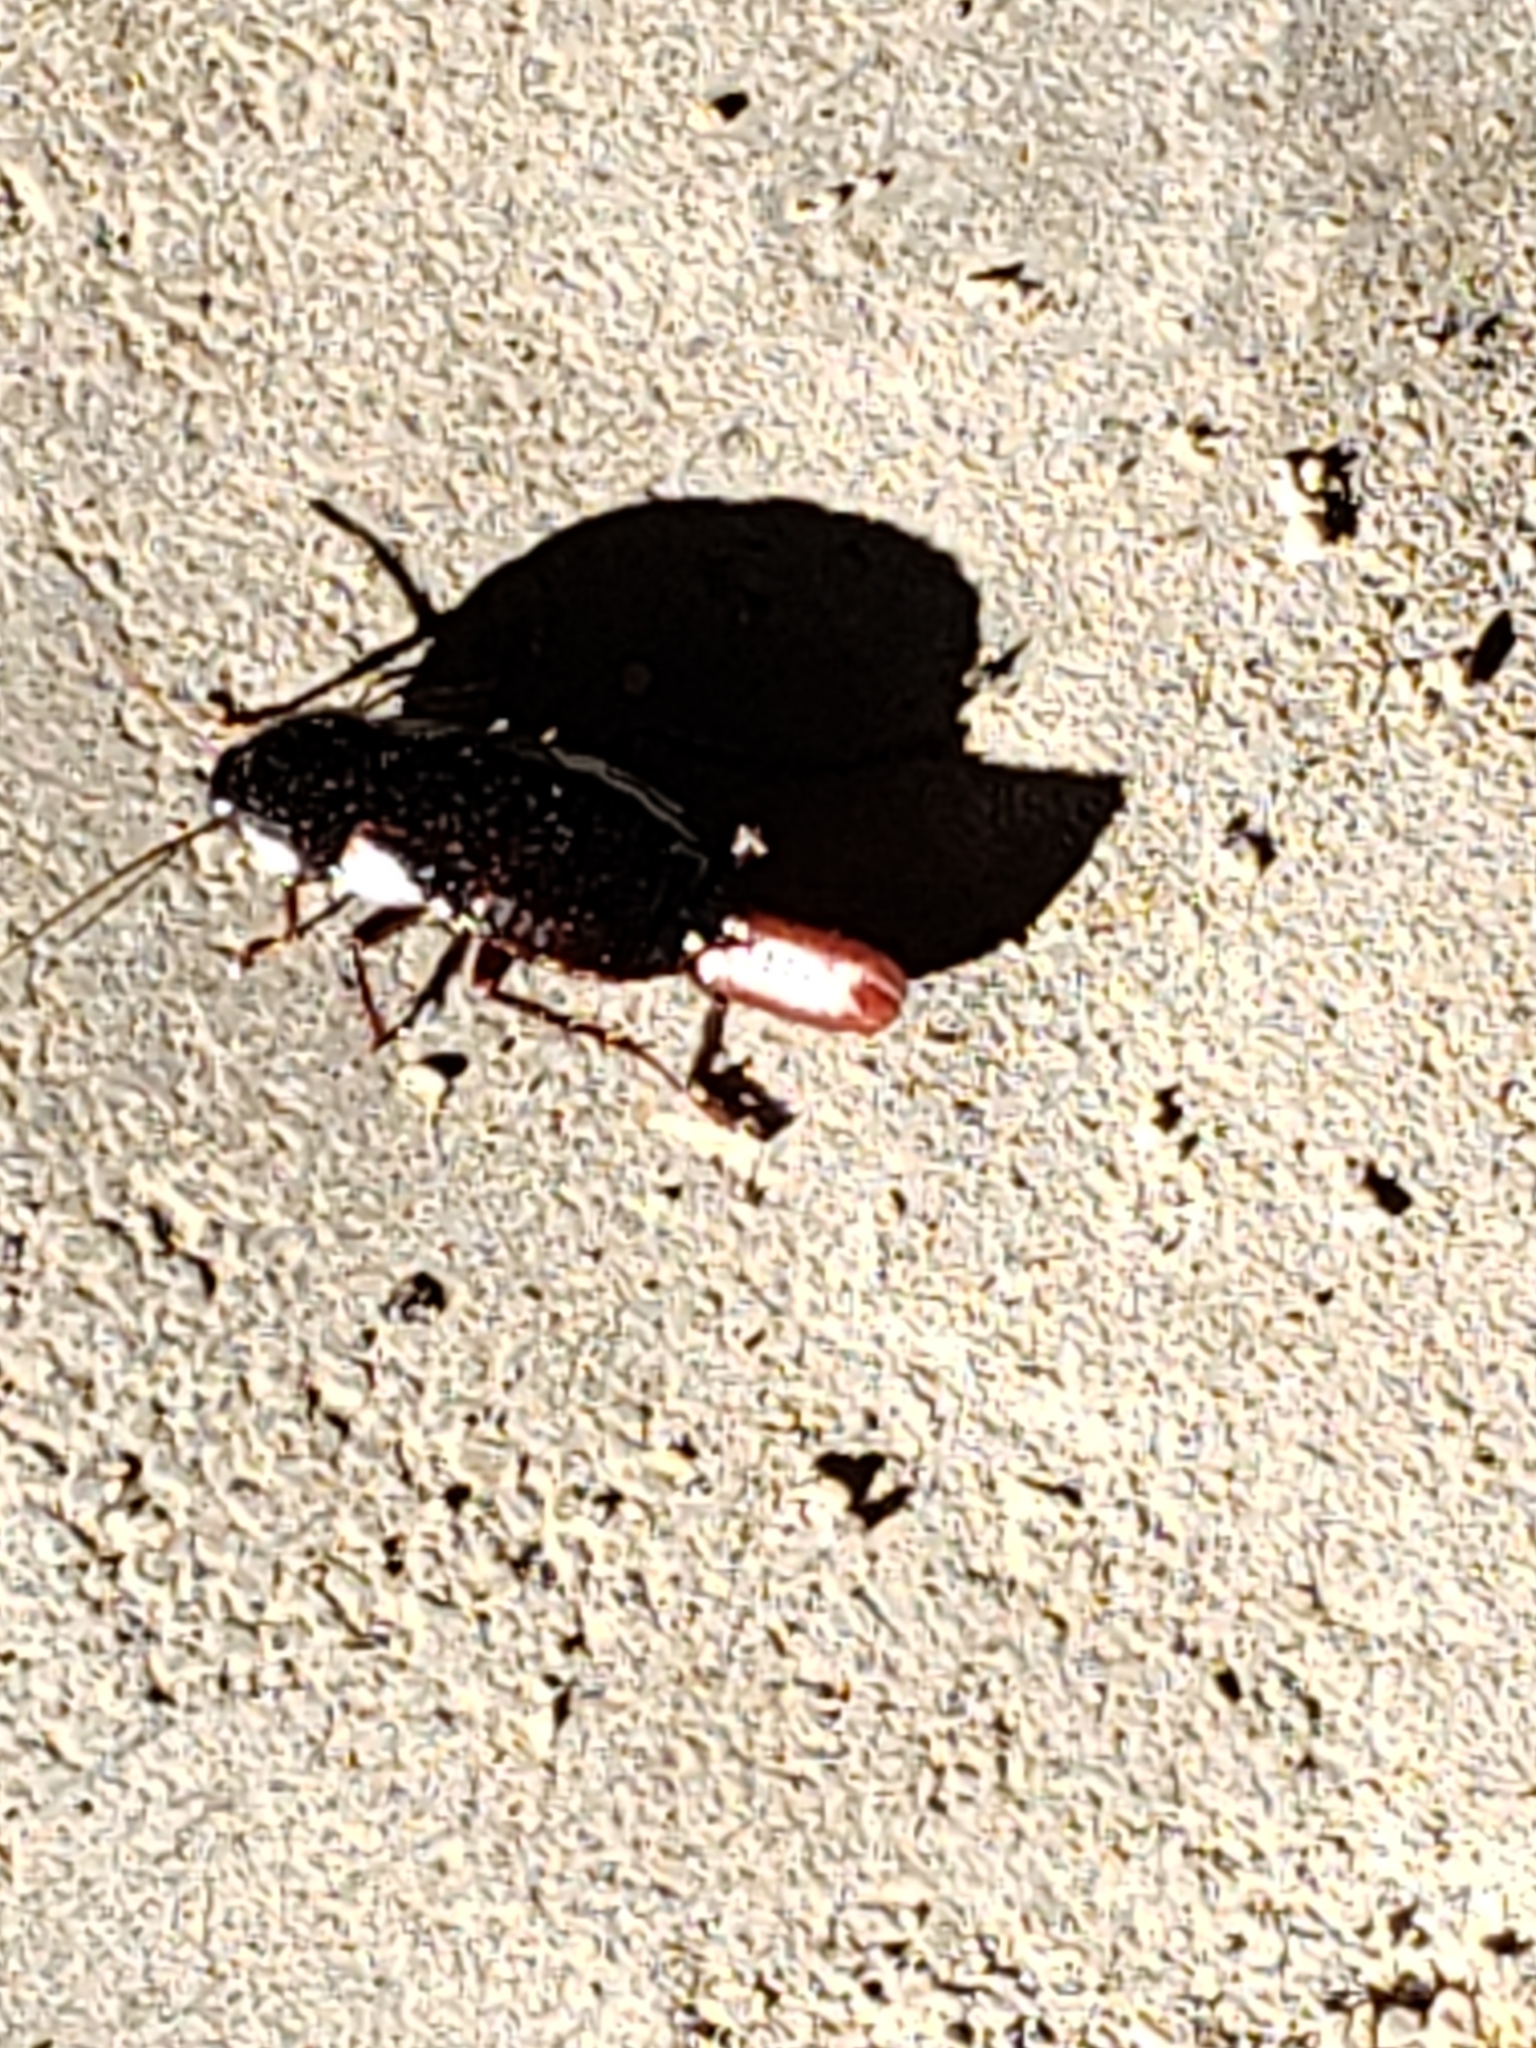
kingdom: Animalia
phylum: Arthropoda
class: Insecta
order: Blattodea
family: Blattidae
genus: Blatta
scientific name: Blatta orientalis
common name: Oriental cockroach
